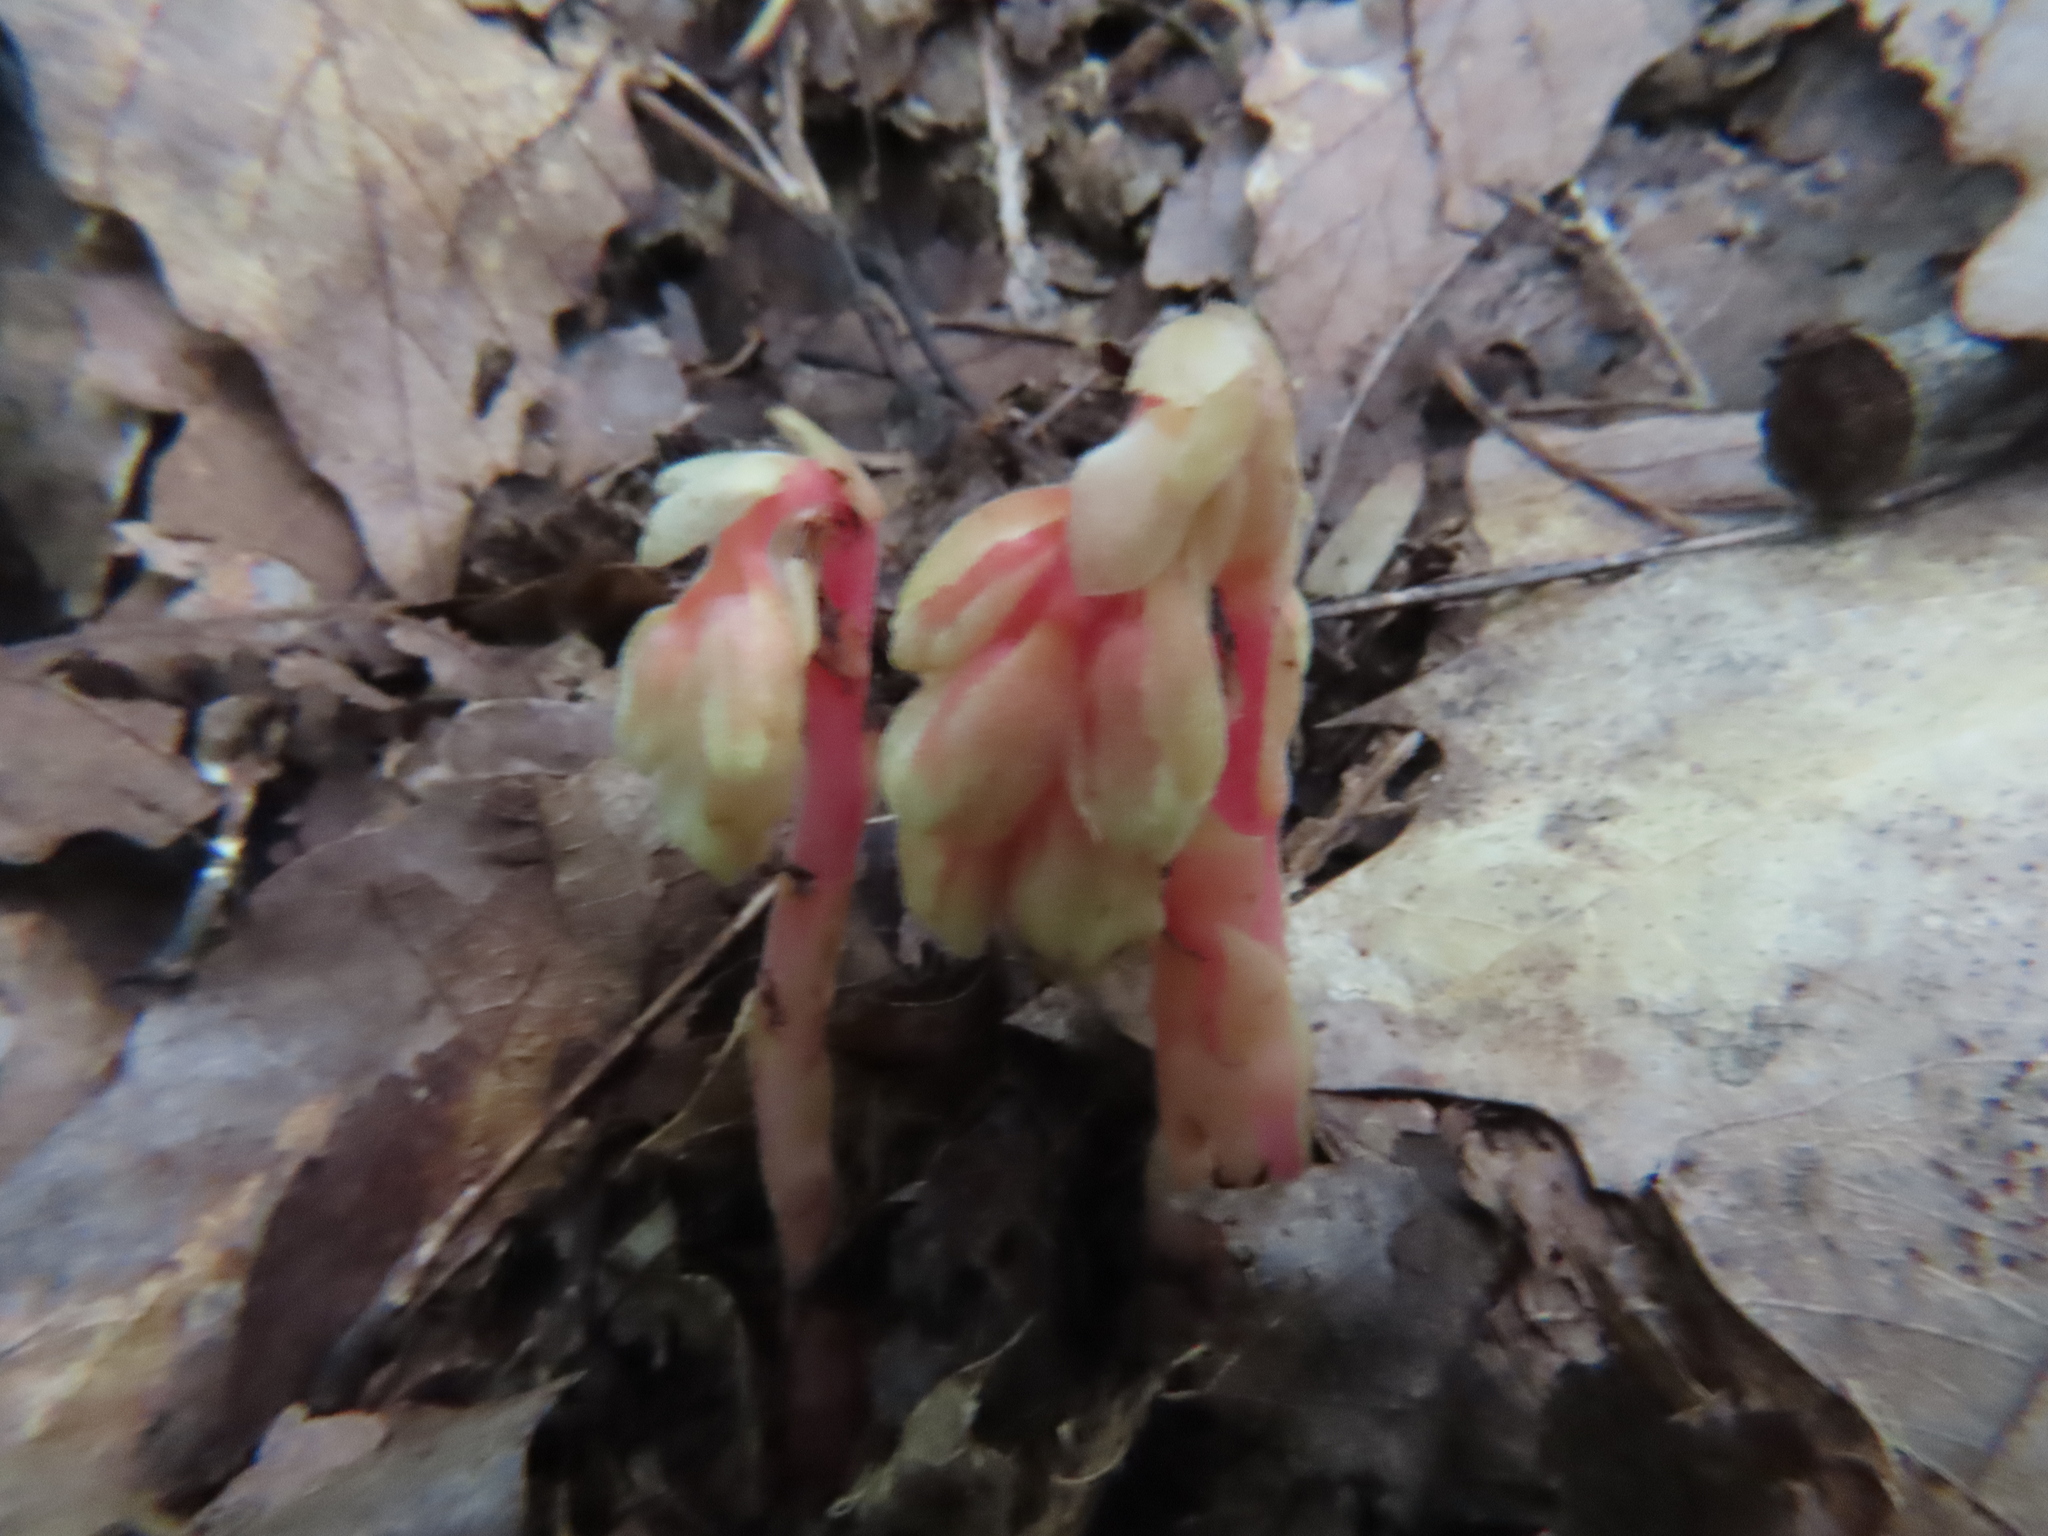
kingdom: Plantae
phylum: Tracheophyta
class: Magnoliopsida
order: Ericales
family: Ericaceae
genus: Hypopitys
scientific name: Hypopitys monotropa
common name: Yellow bird's-nest
